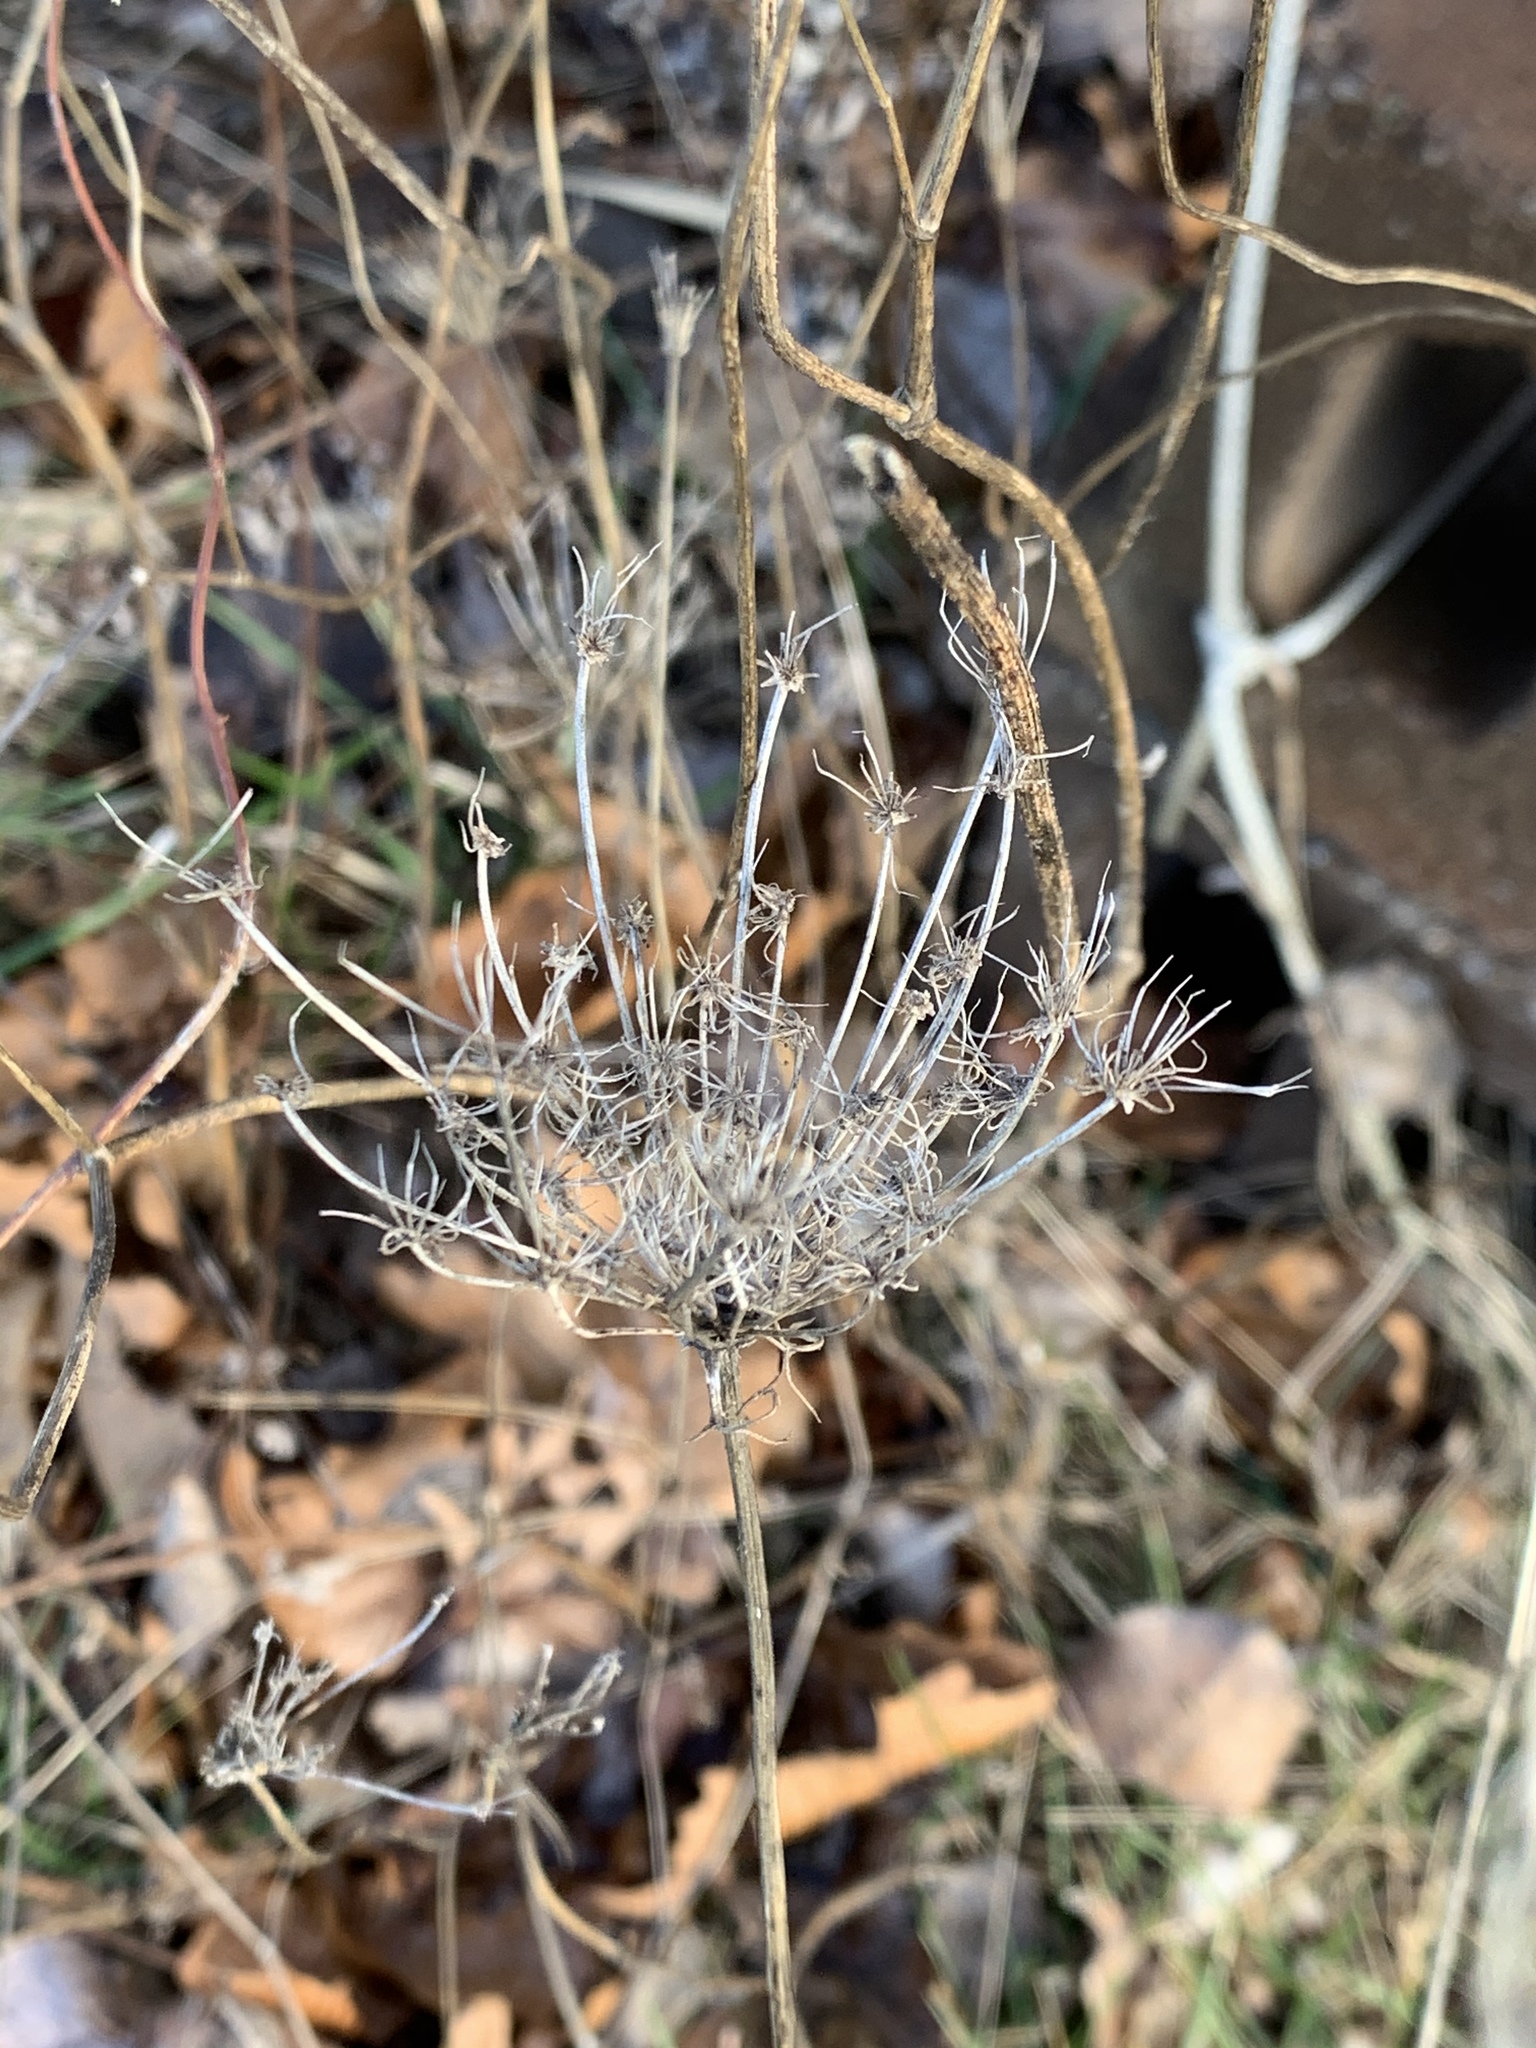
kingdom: Plantae
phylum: Tracheophyta
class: Magnoliopsida
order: Apiales
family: Apiaceae
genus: Daucus
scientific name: Daucus carota
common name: Wild carrot
